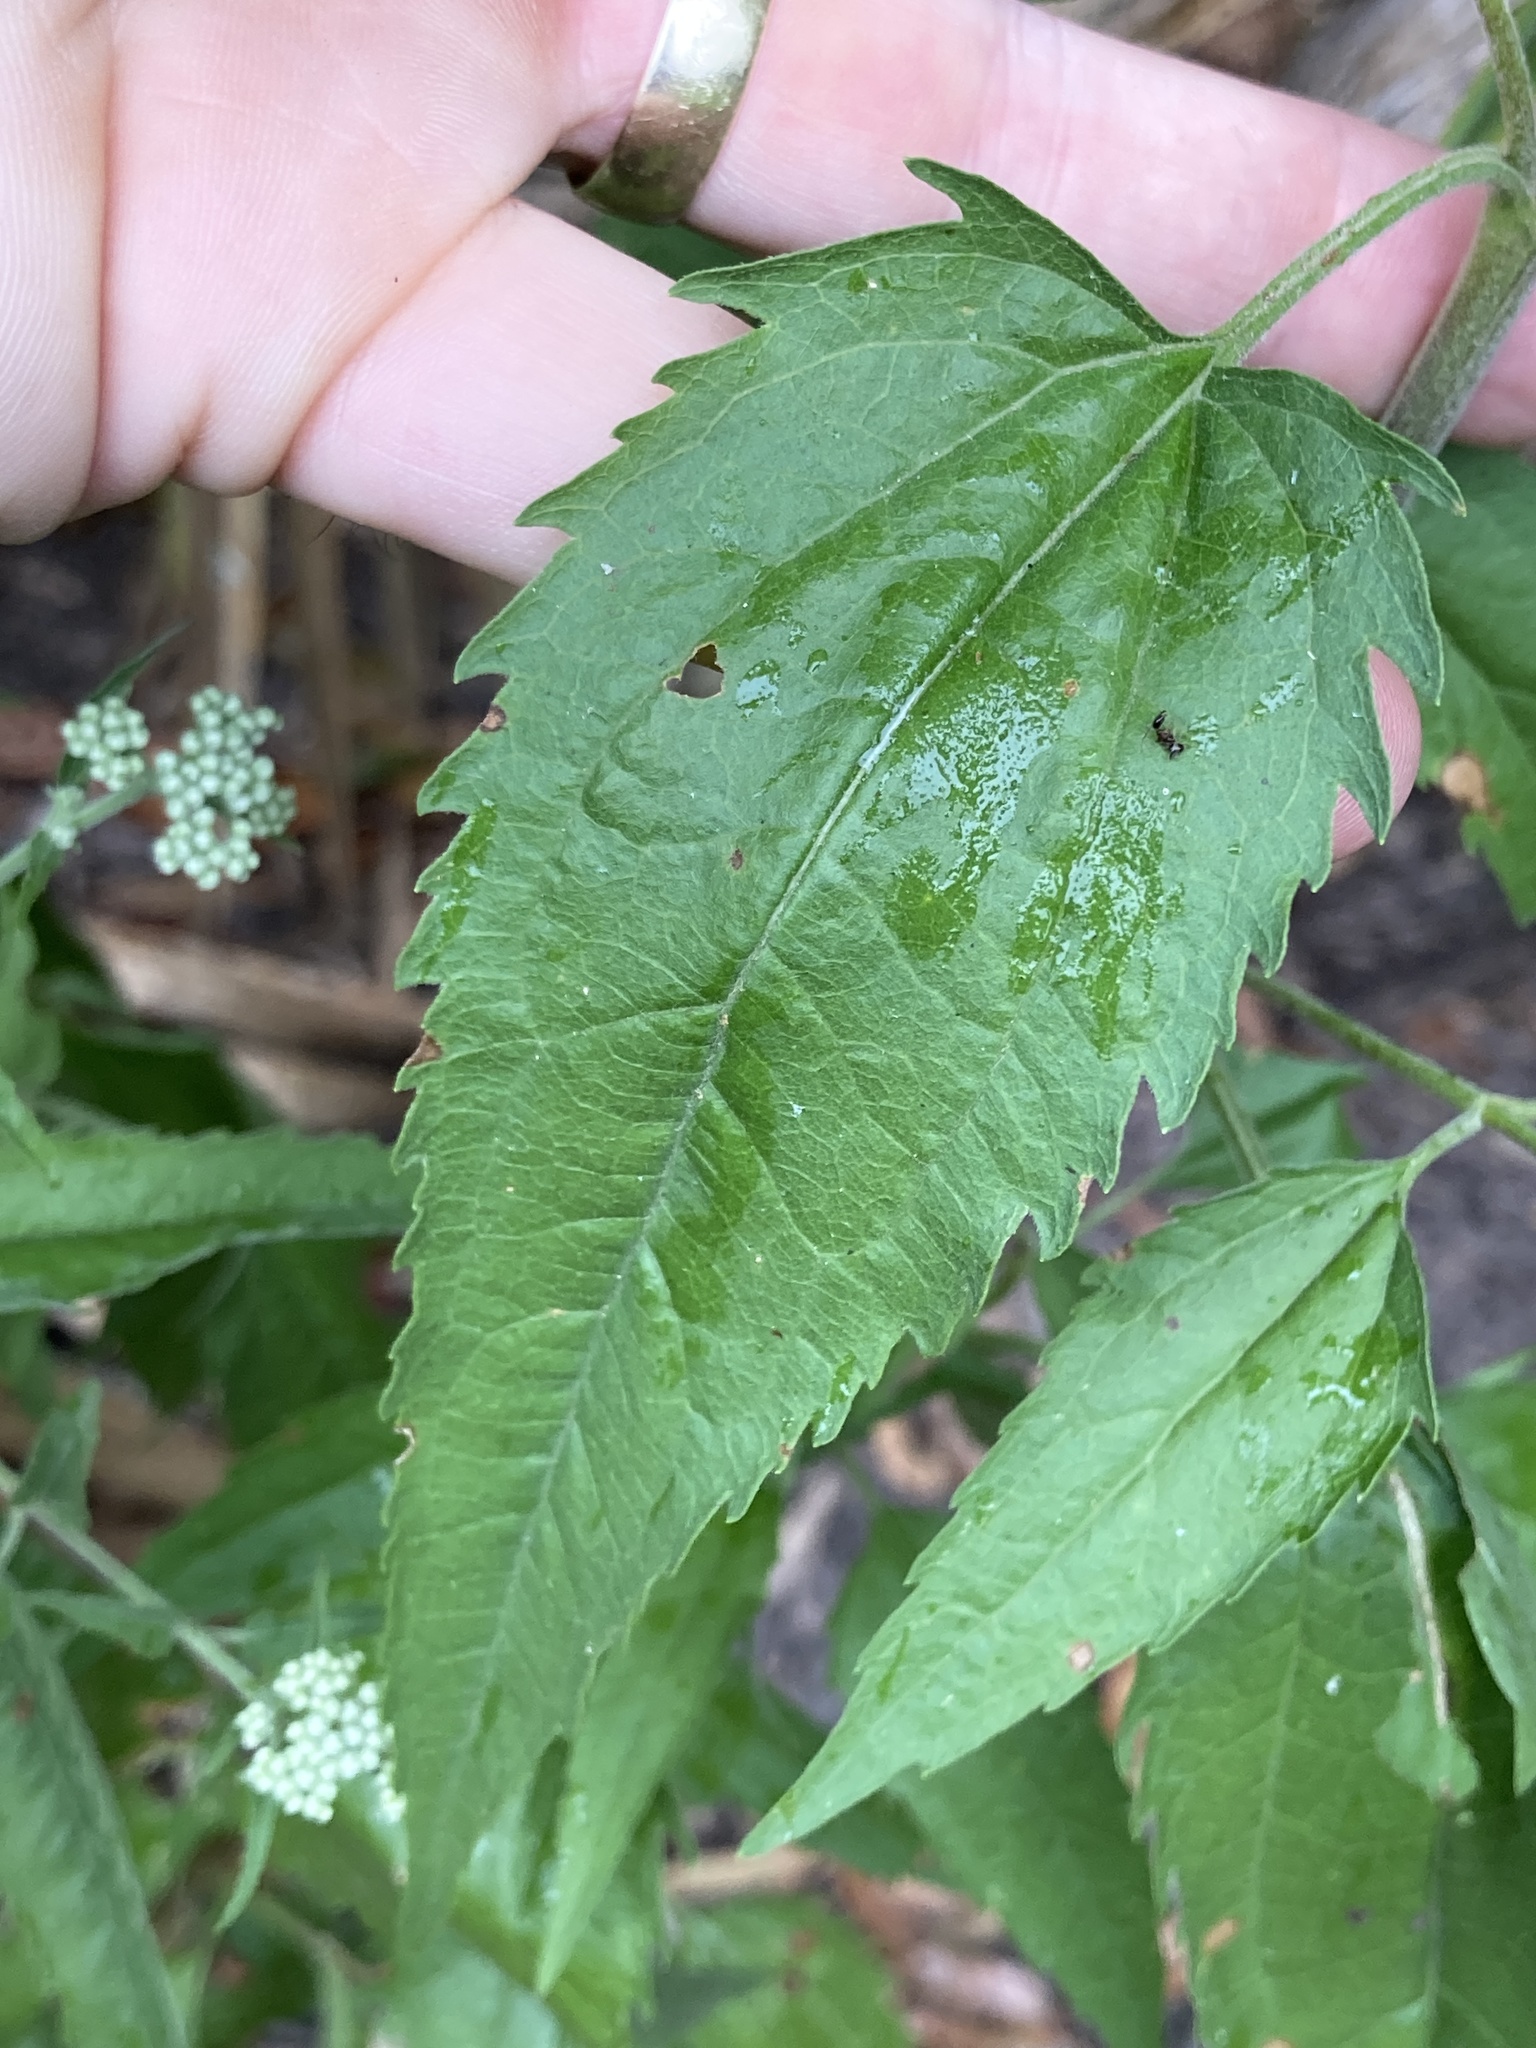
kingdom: Plantae
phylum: Tracheophyta
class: Magnoliopsida
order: Asterales
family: Asteraceae
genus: Eupatorium
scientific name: Eupatorium serotinum
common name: Late boneset
